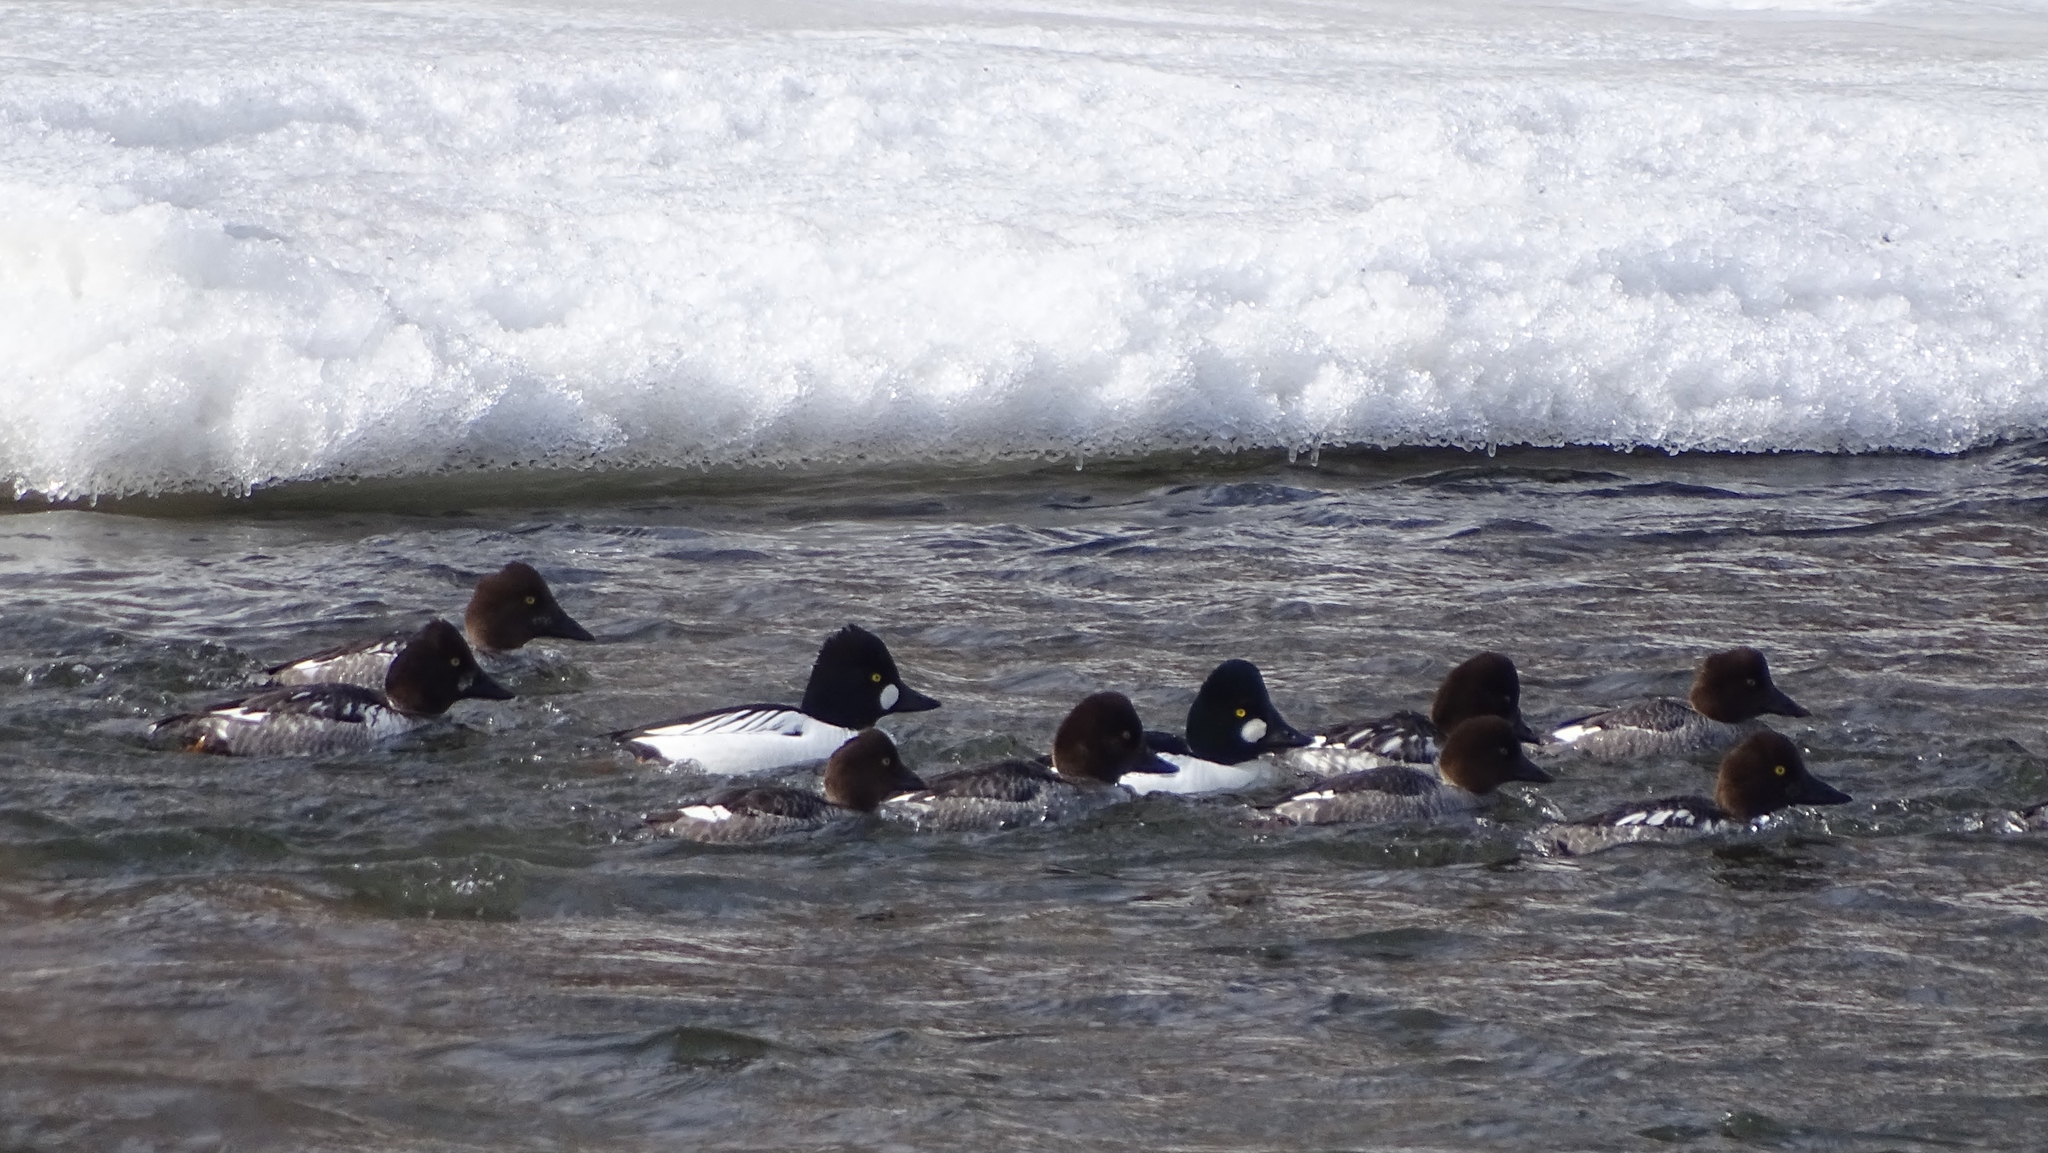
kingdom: Animalia
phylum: Chordata
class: Aves
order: Anseriformes
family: Anatidae
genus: Bucephala
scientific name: Bucephala clangula
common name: Common goldeneye
